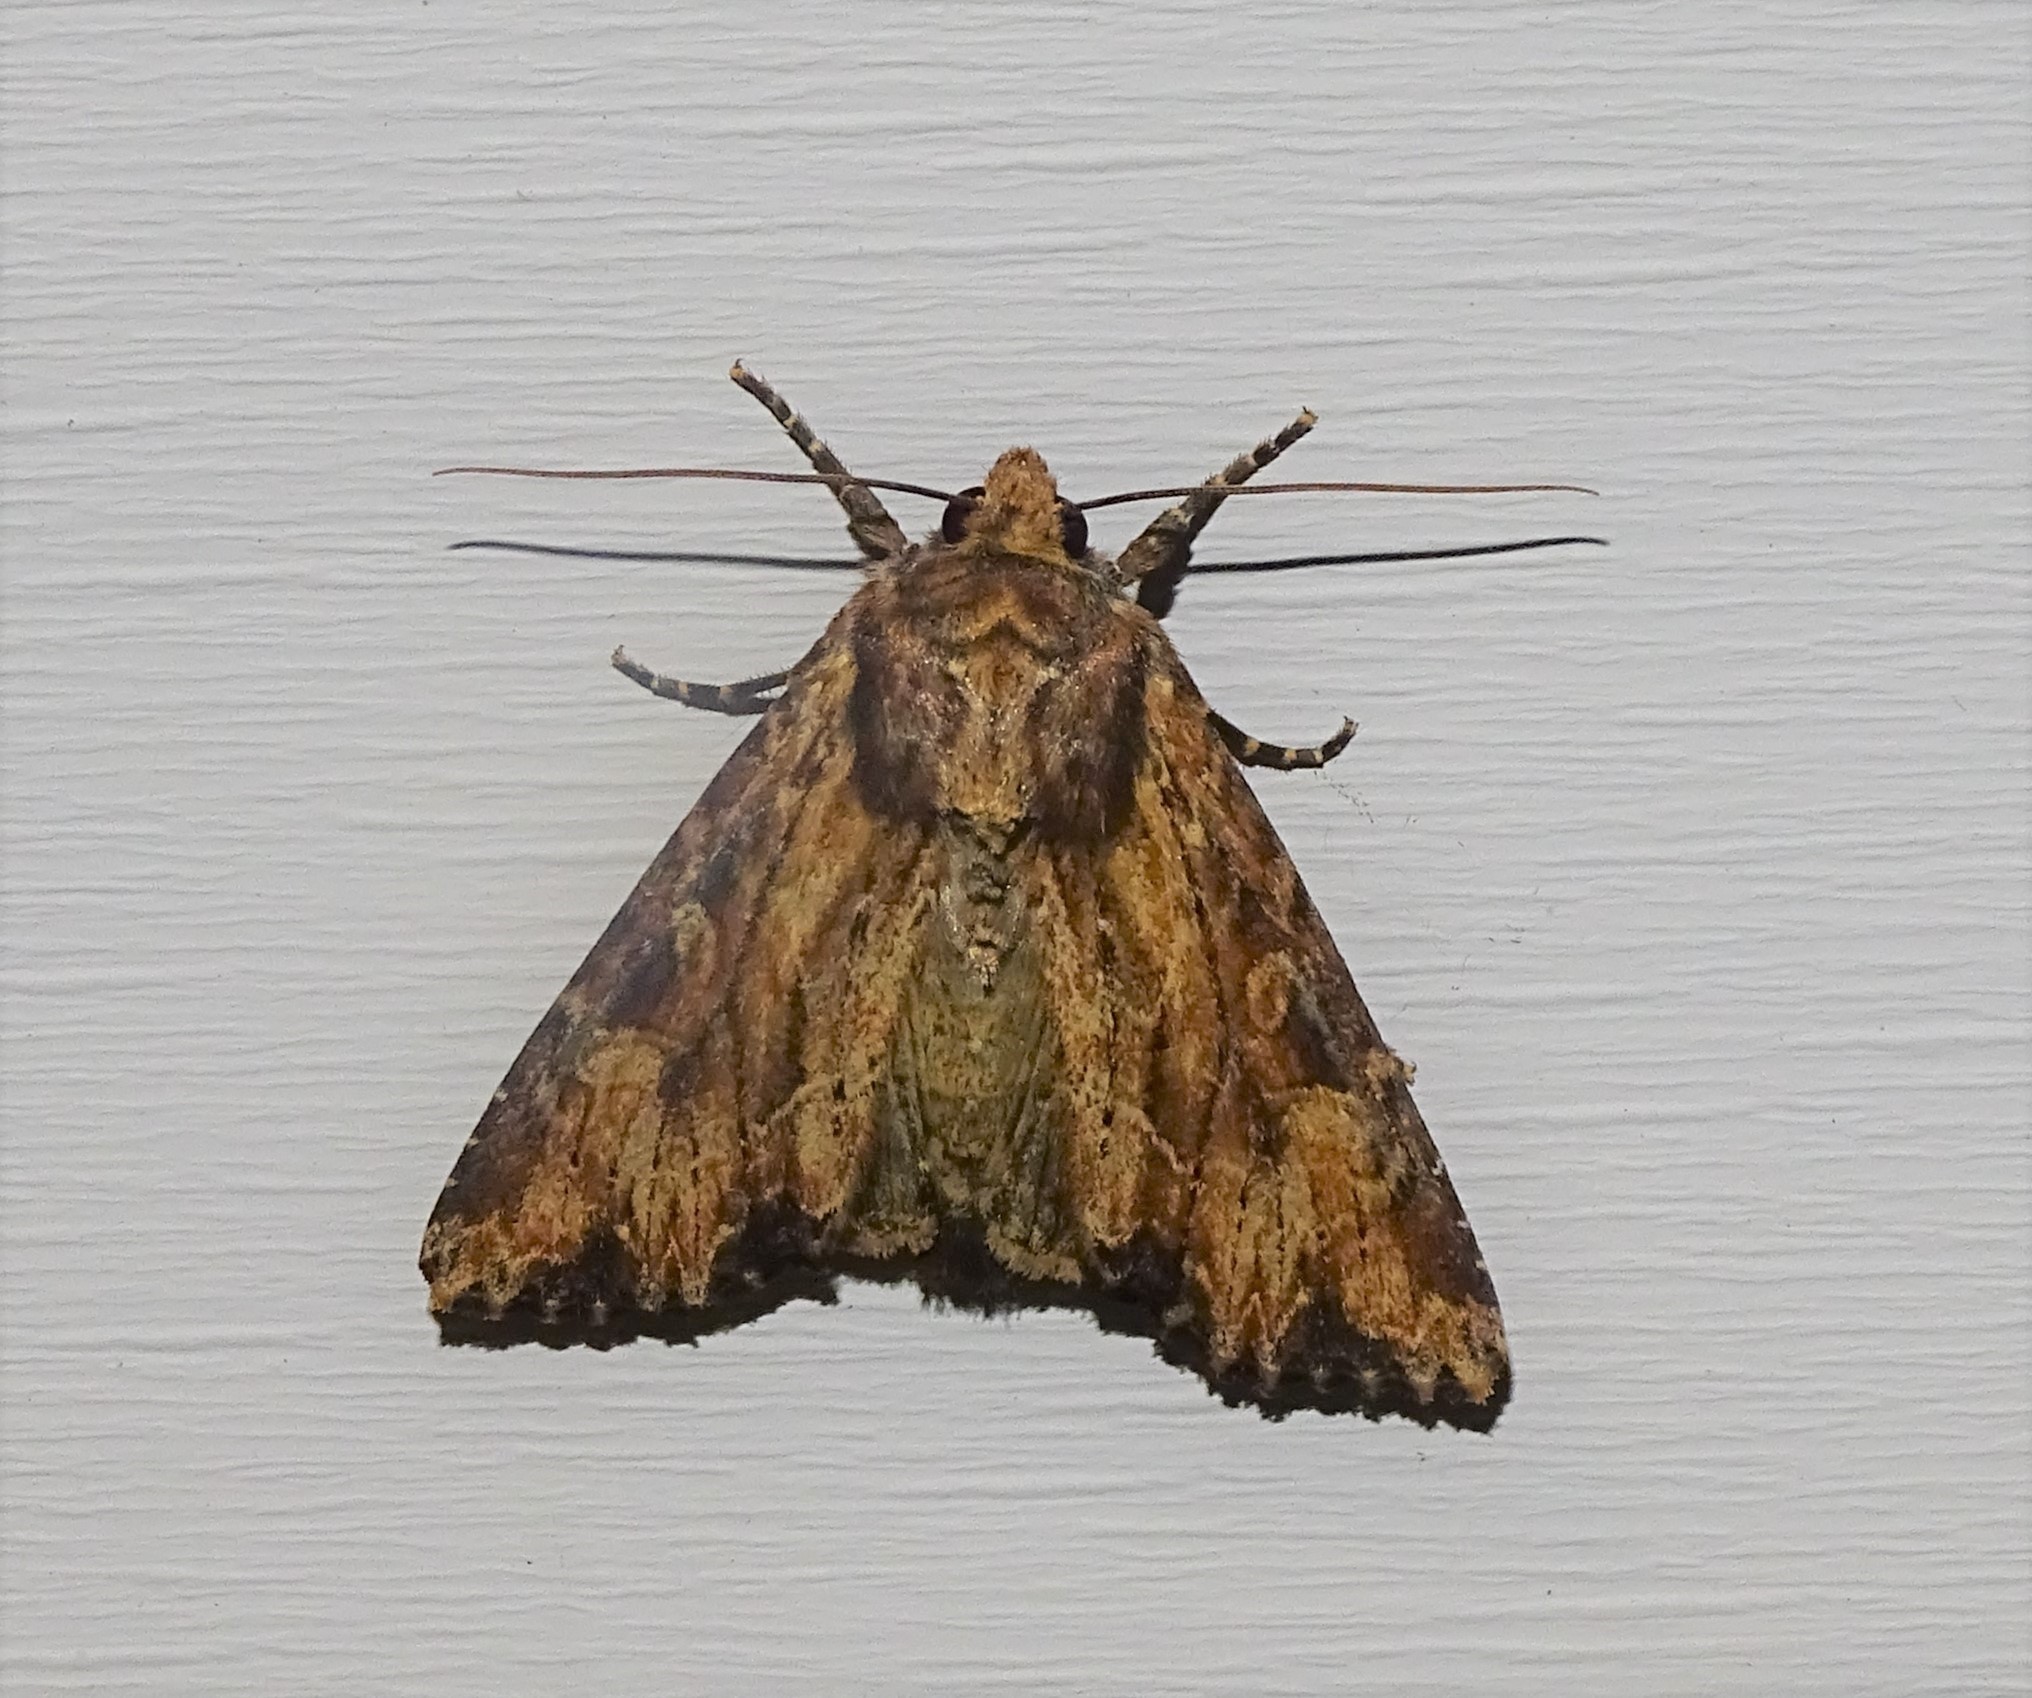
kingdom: Animalia
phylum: Arthropoda
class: Insecta
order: Lepidoptera
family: Noctuidae
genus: Apamea
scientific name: Apamea lignicolora
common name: Wood-colored apamea moth
